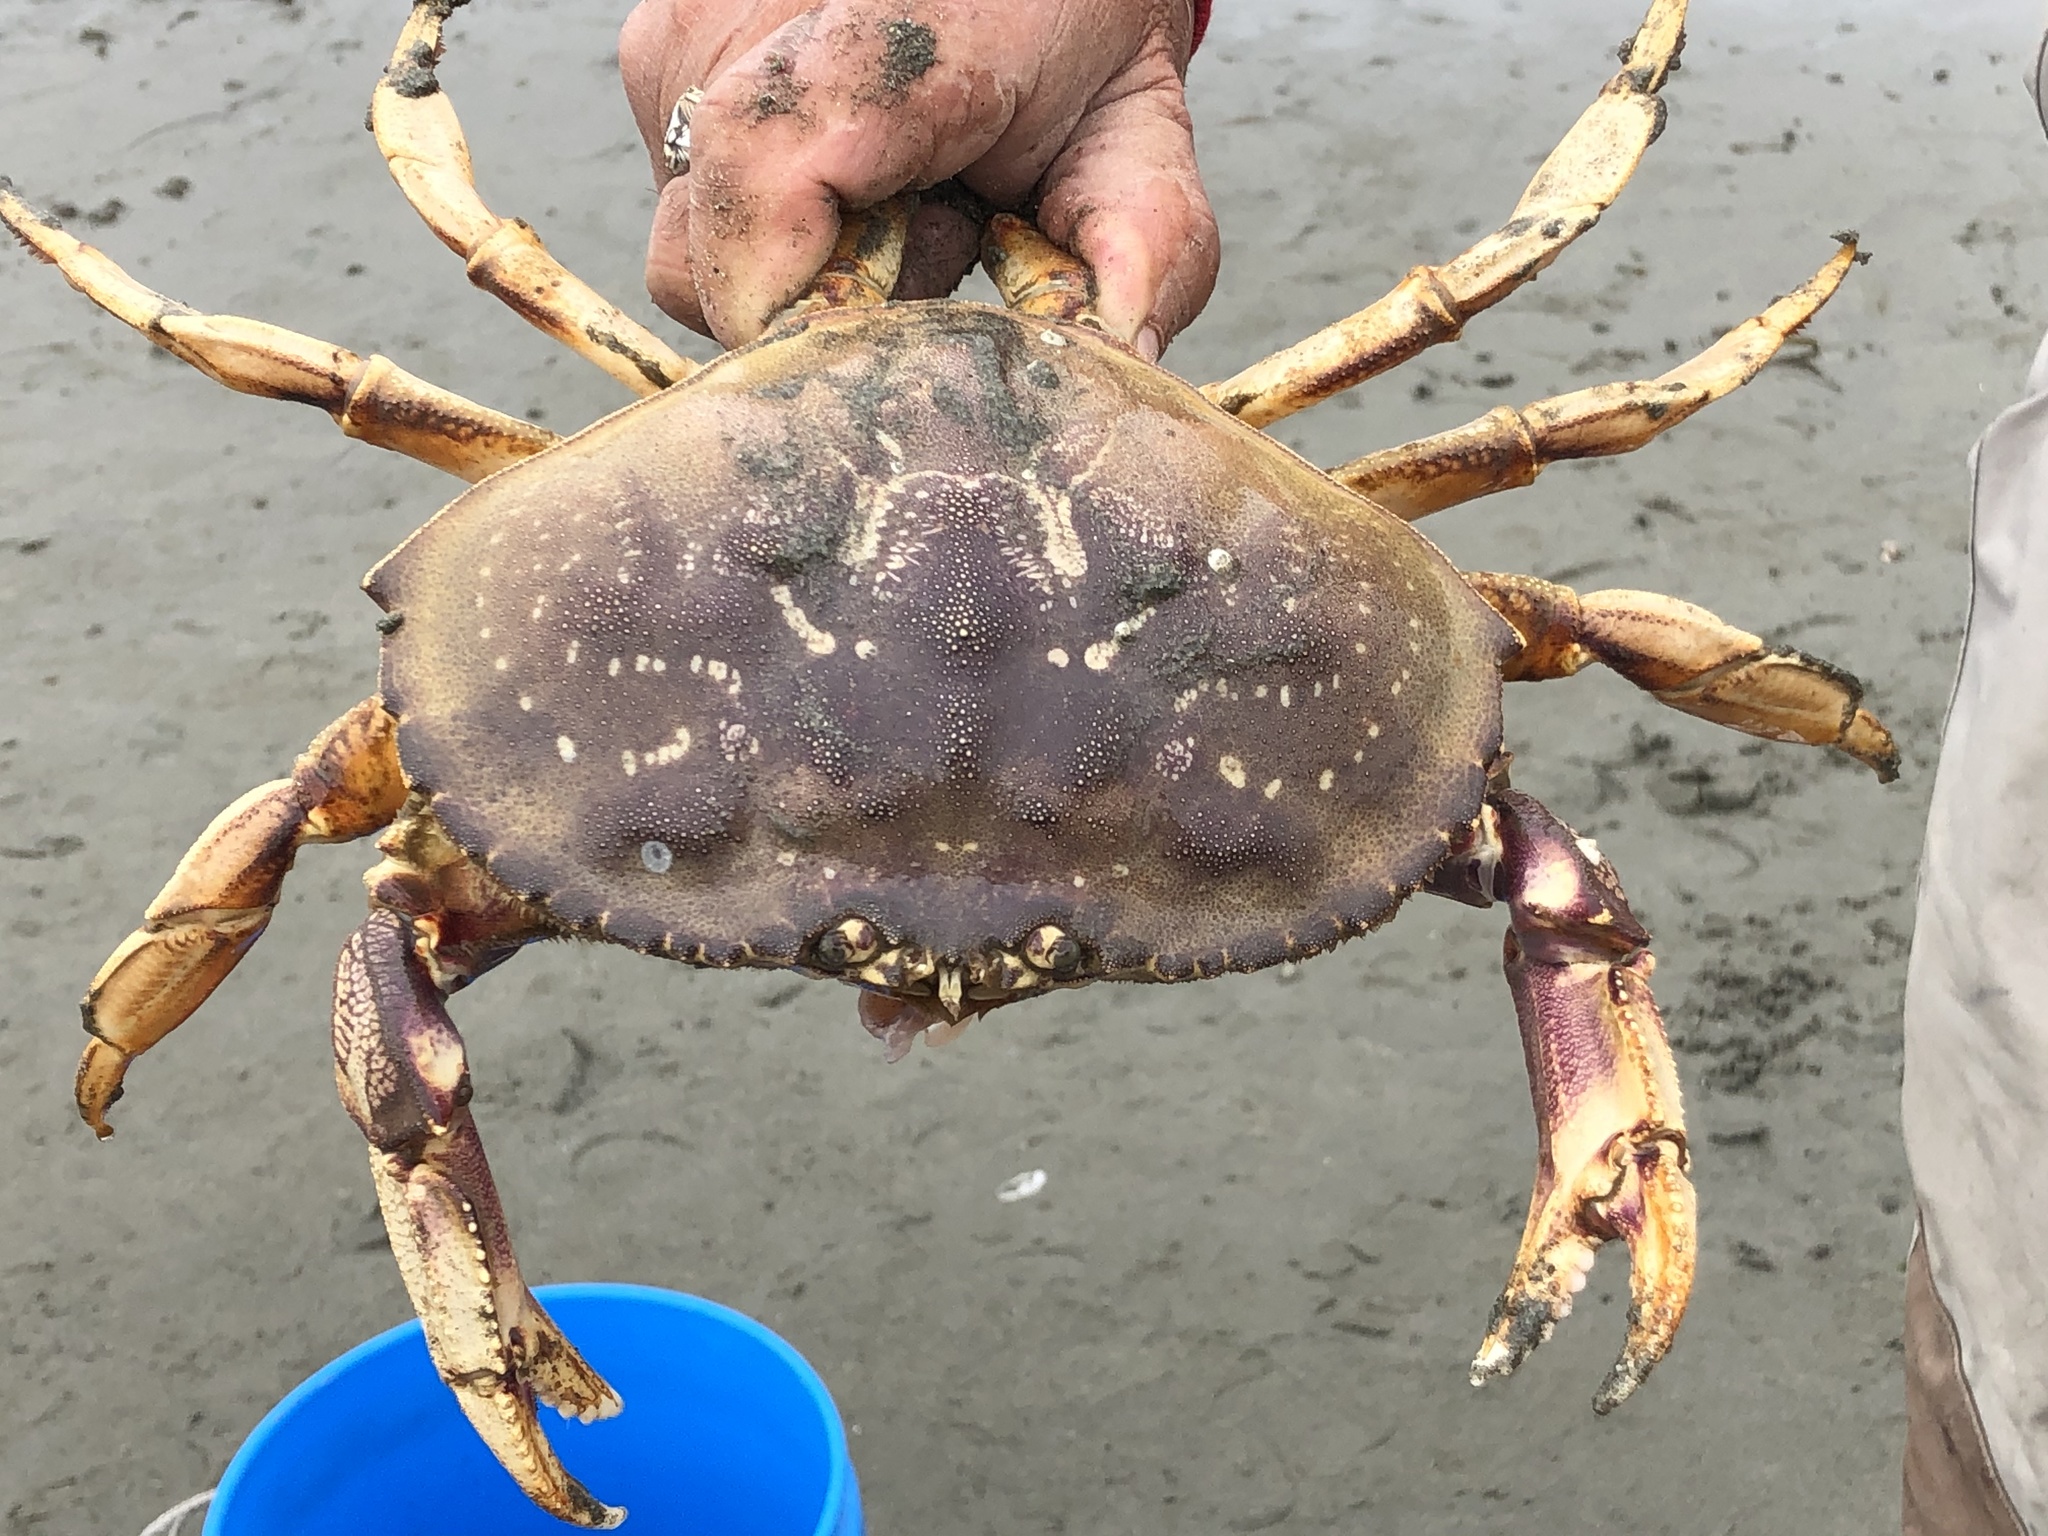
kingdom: Animalia
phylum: Arthropoda
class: Malacostraca
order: Decapoda
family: Cancridae
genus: Metacarcinus
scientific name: Metacarcinus magister
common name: Californian crab
